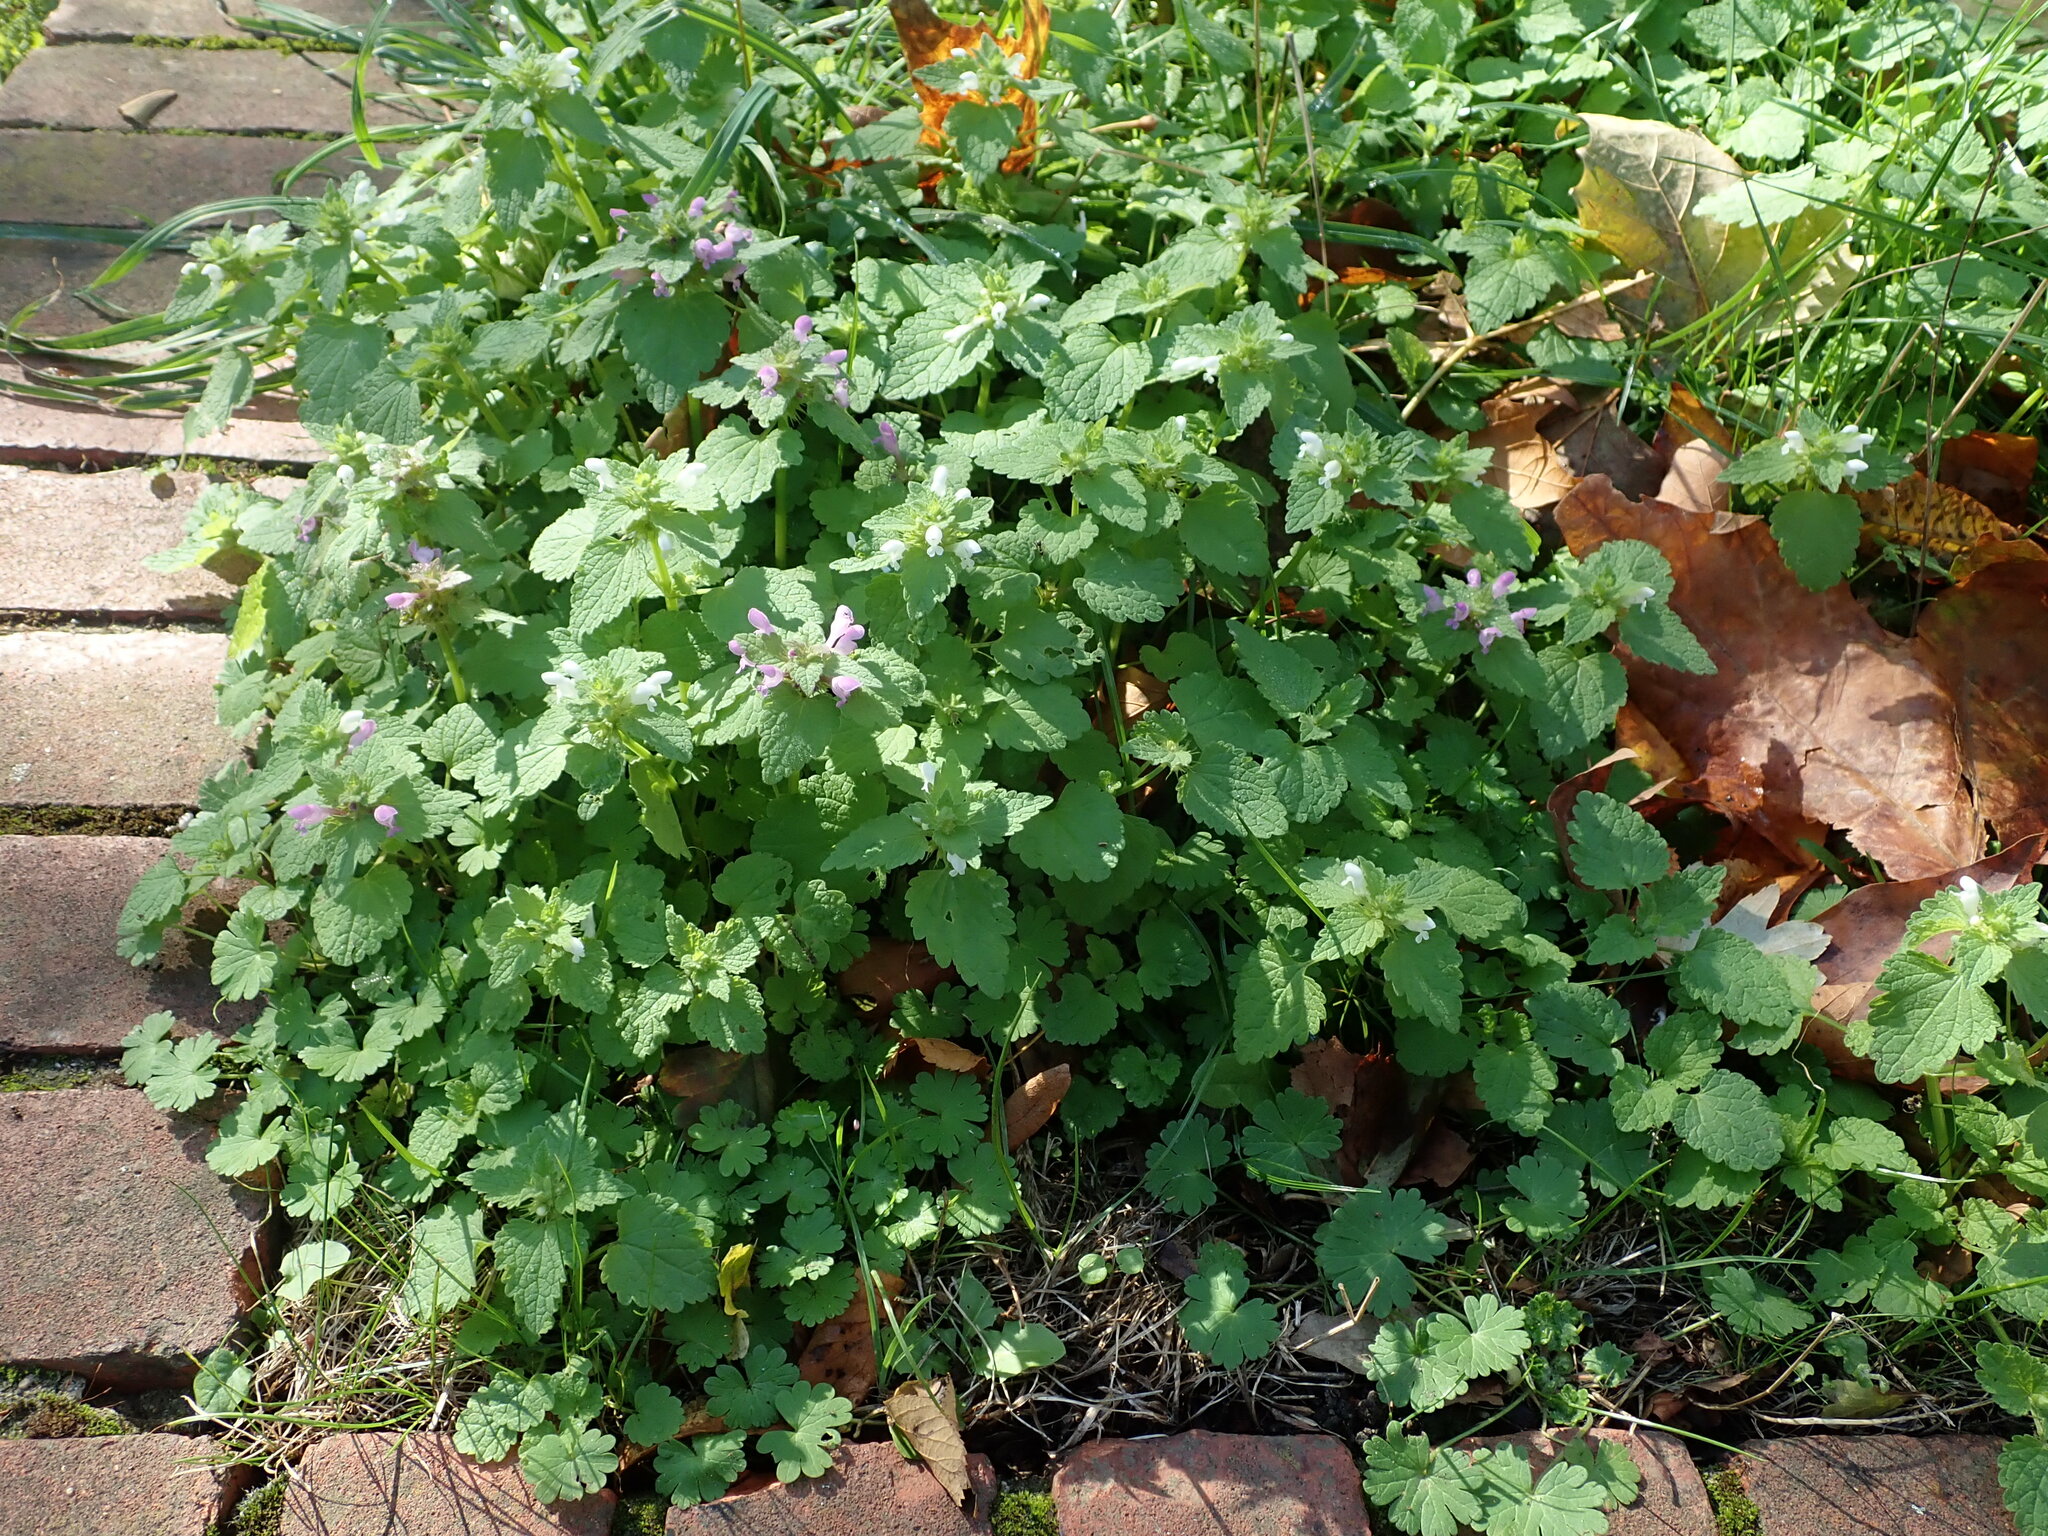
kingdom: Plantae
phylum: Tracheophyta
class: Magnoliopsida
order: Lamiales
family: Lamiaceae
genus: Lamium
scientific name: Lamium purpureum
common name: Red dead-nettle
